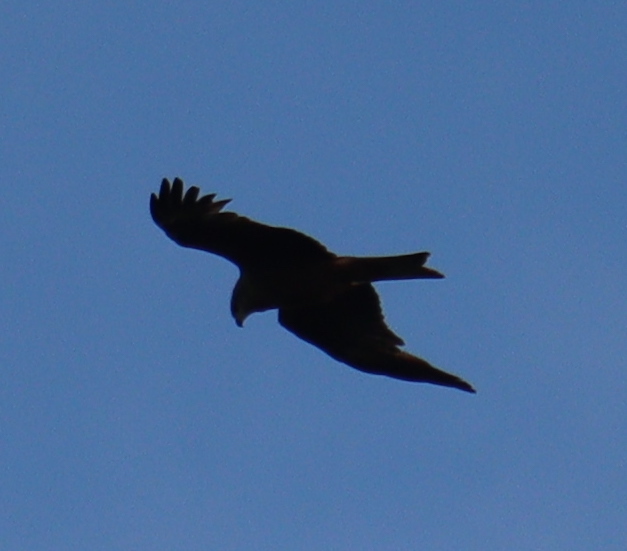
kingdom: Animalia
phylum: Chordata
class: Aves
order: Accipitriformes
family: Accipitridae
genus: Milvus
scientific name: Milvus migrans
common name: Black kite
